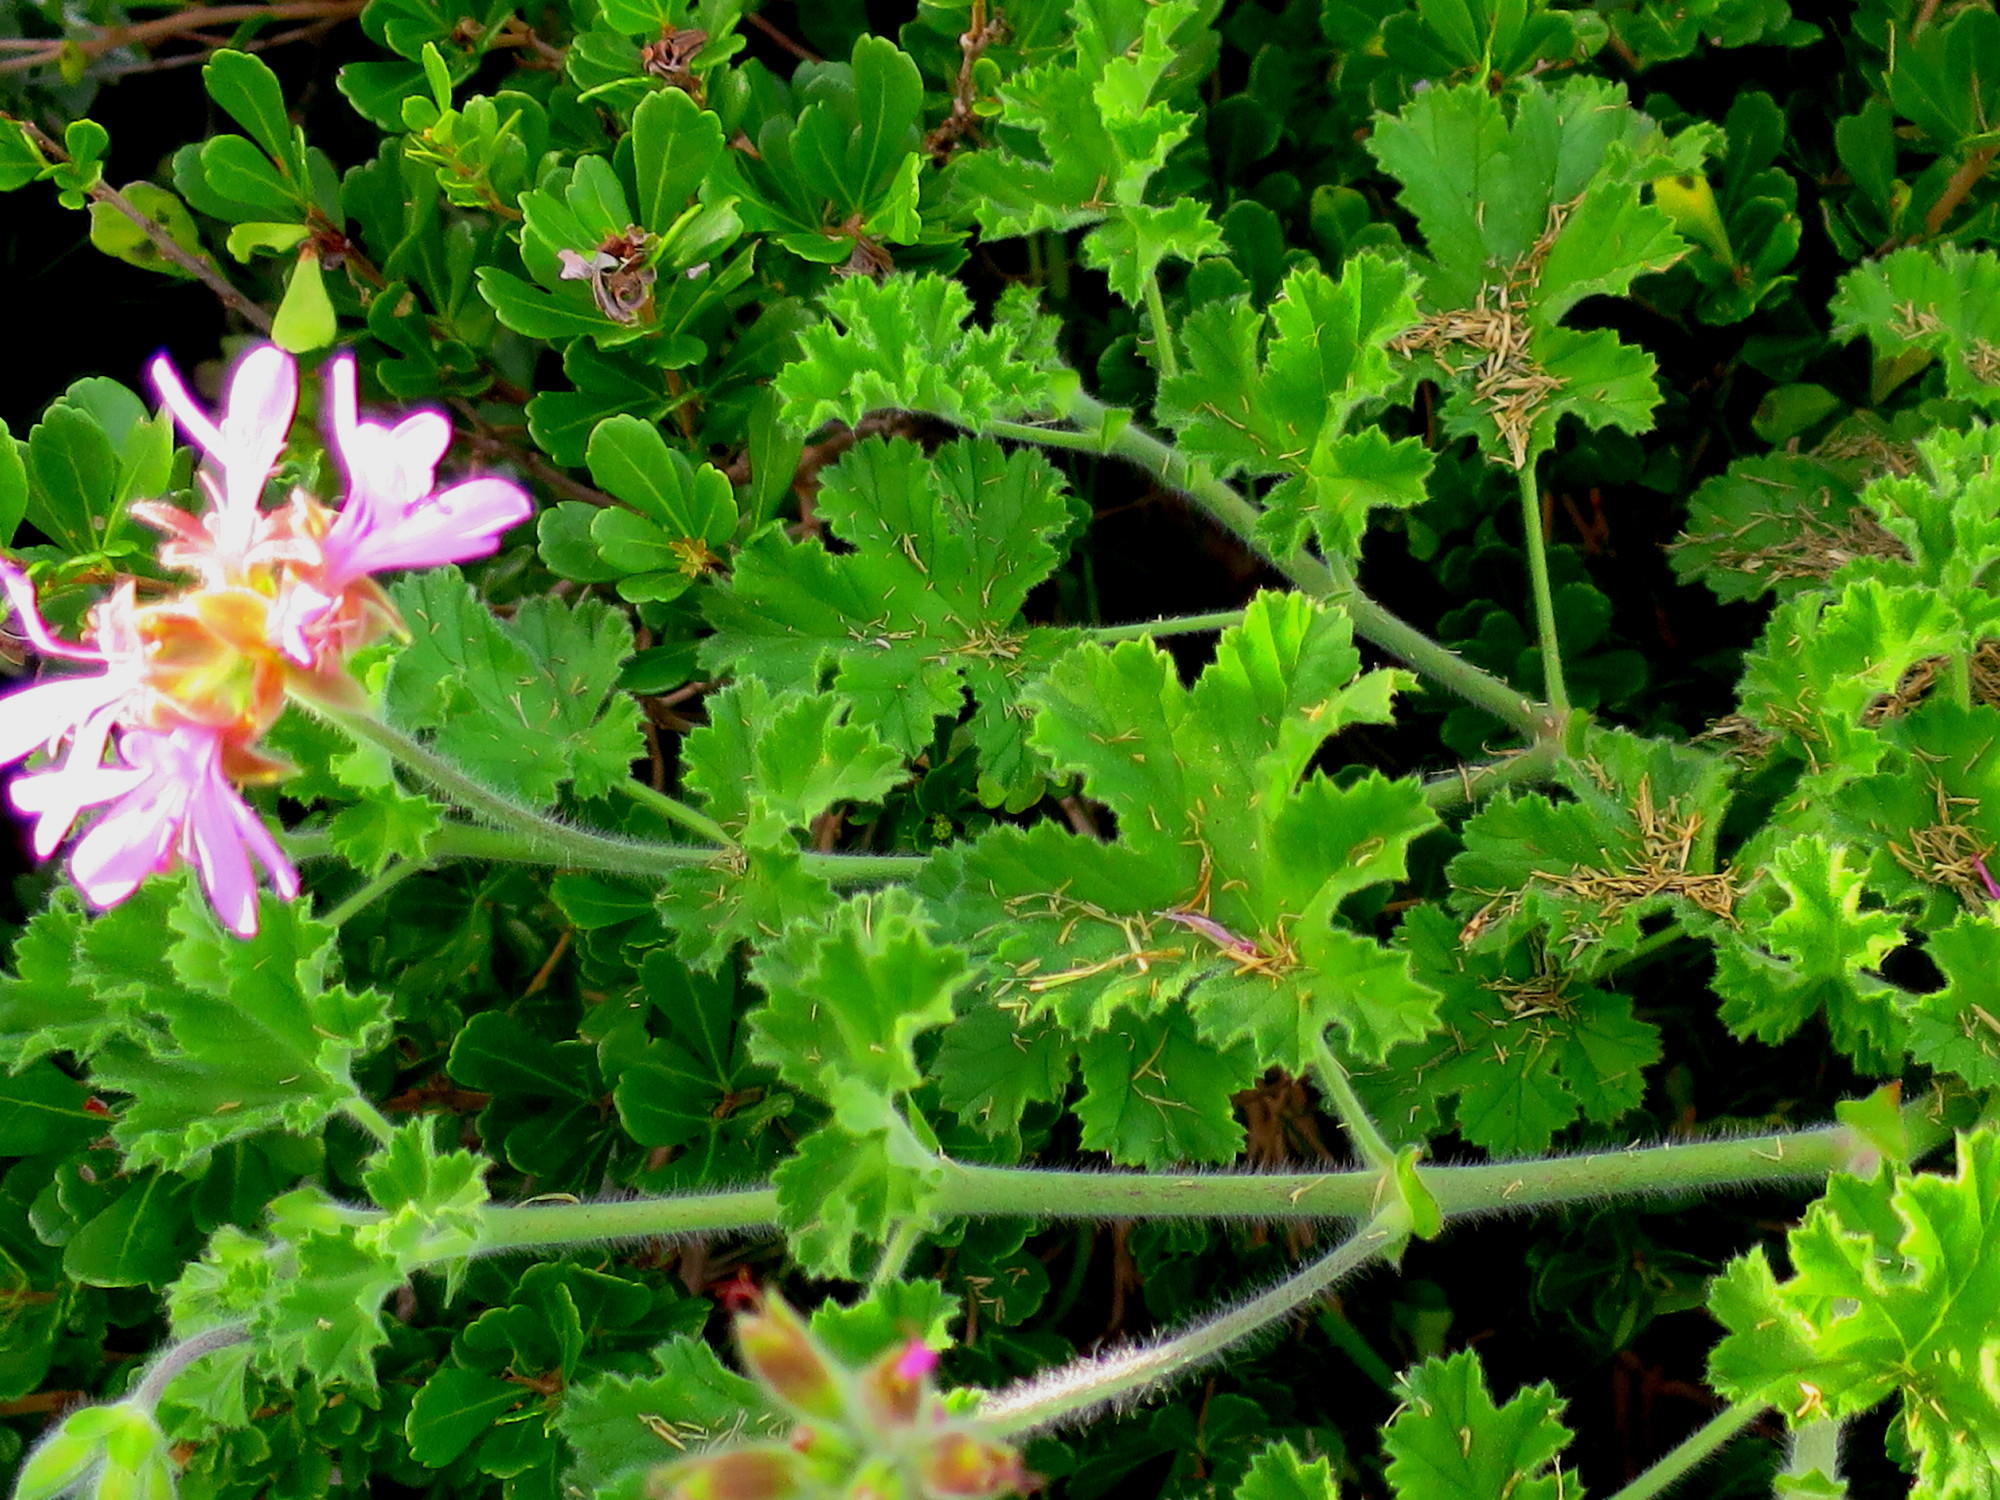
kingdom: Plantae
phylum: Tracheophyta
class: Magnoliopsida
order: Geraniales
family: Geraniaceae
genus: Pelargonium
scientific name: Pelargonium capitatum
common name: Rose scented geranium
